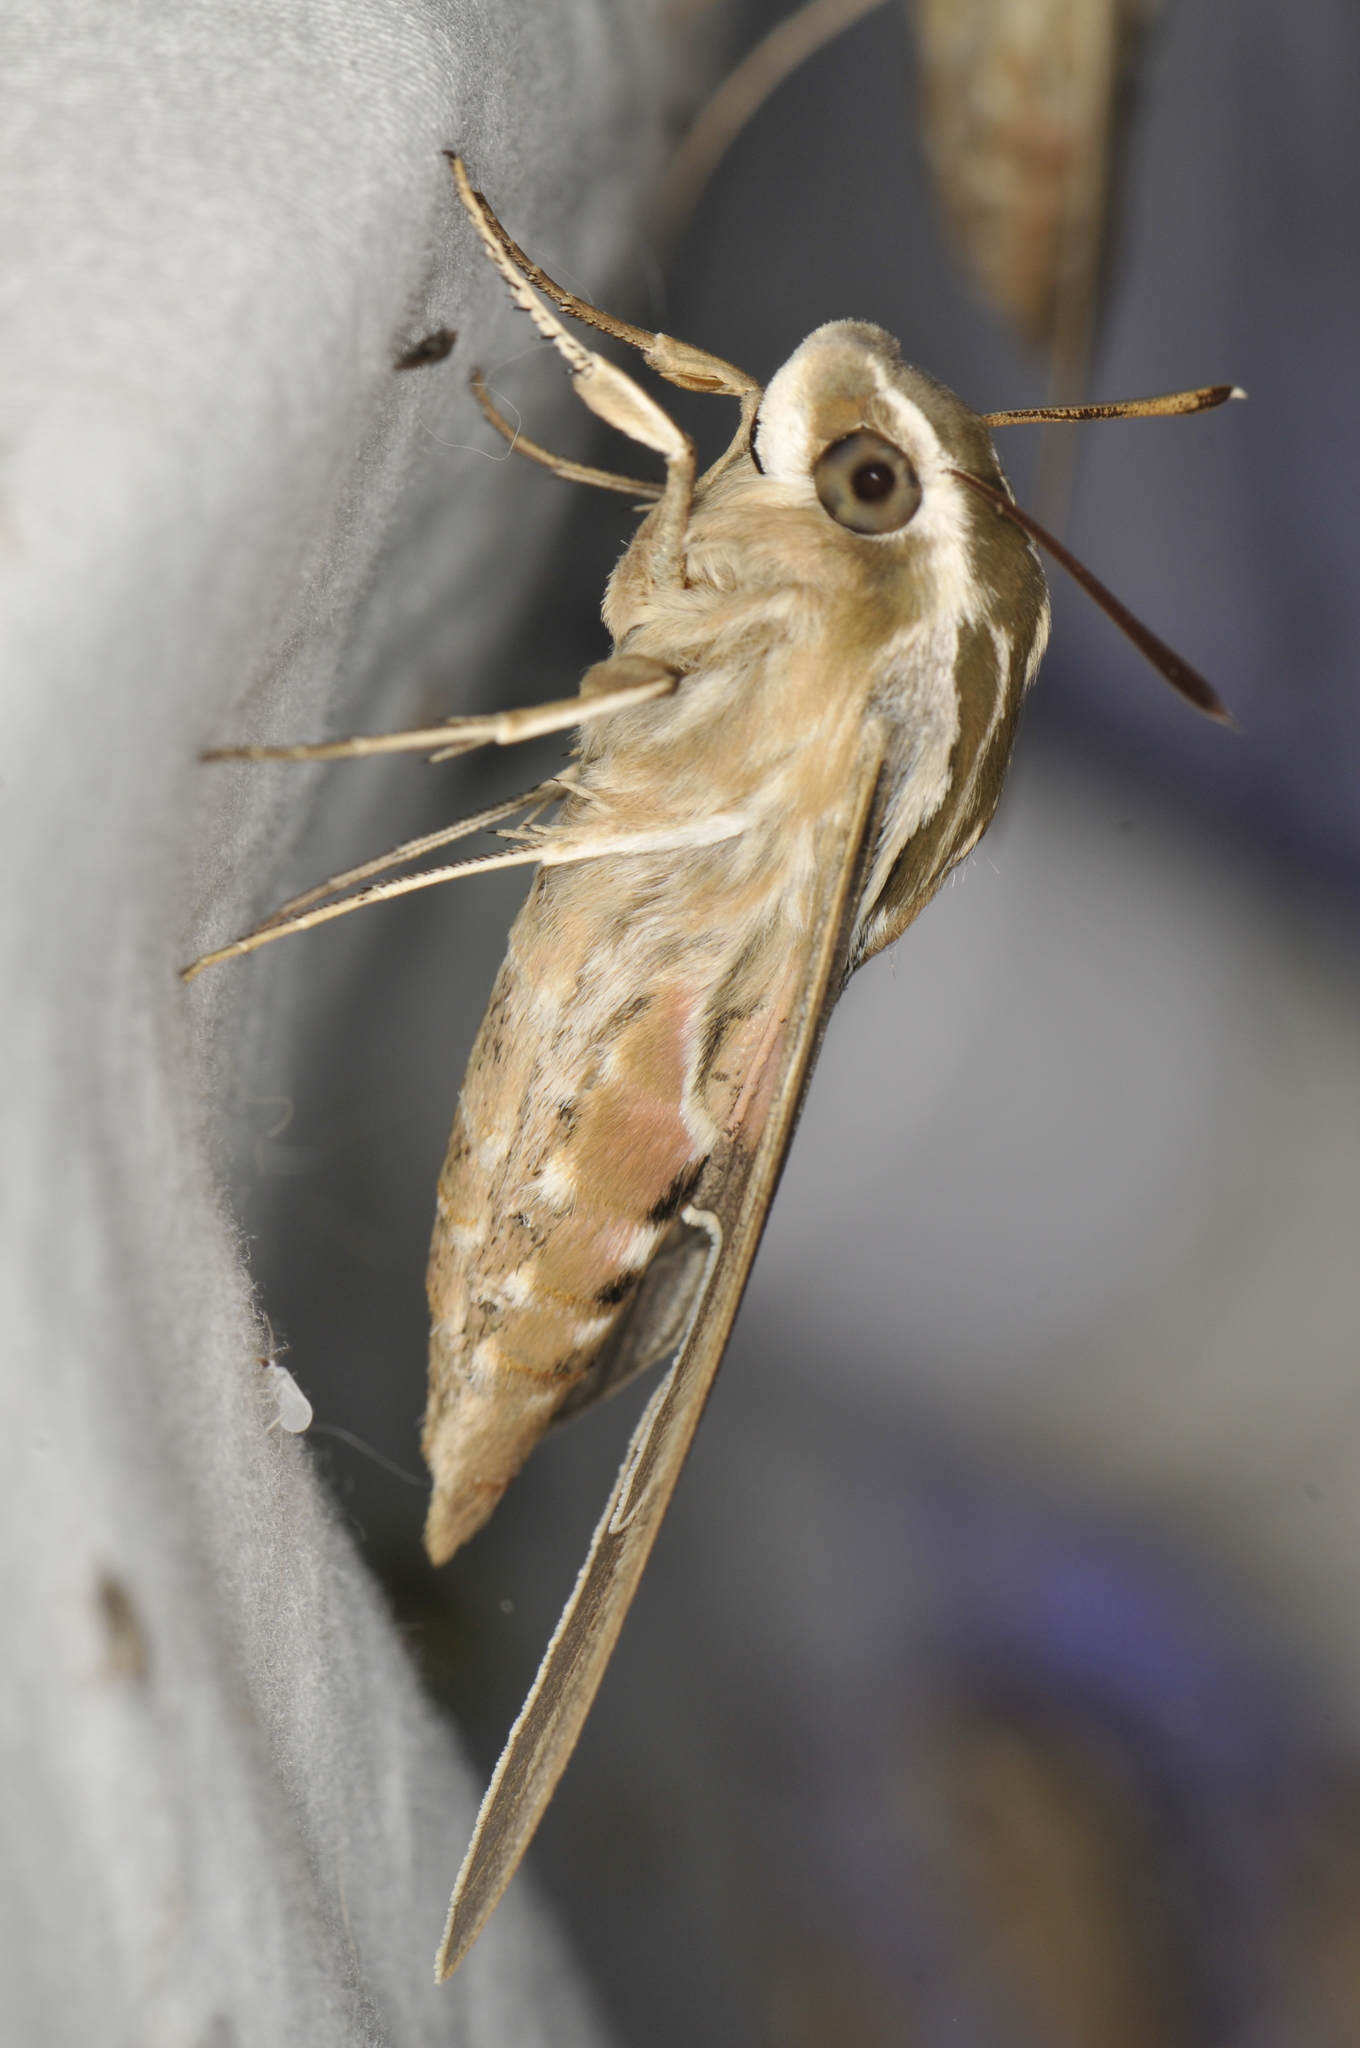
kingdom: Animalia
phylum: Arthropoda
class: Insecta
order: Lepidoptera
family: Sphingidae
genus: Hyles
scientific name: Hyles lineata
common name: White-lined sphinx
